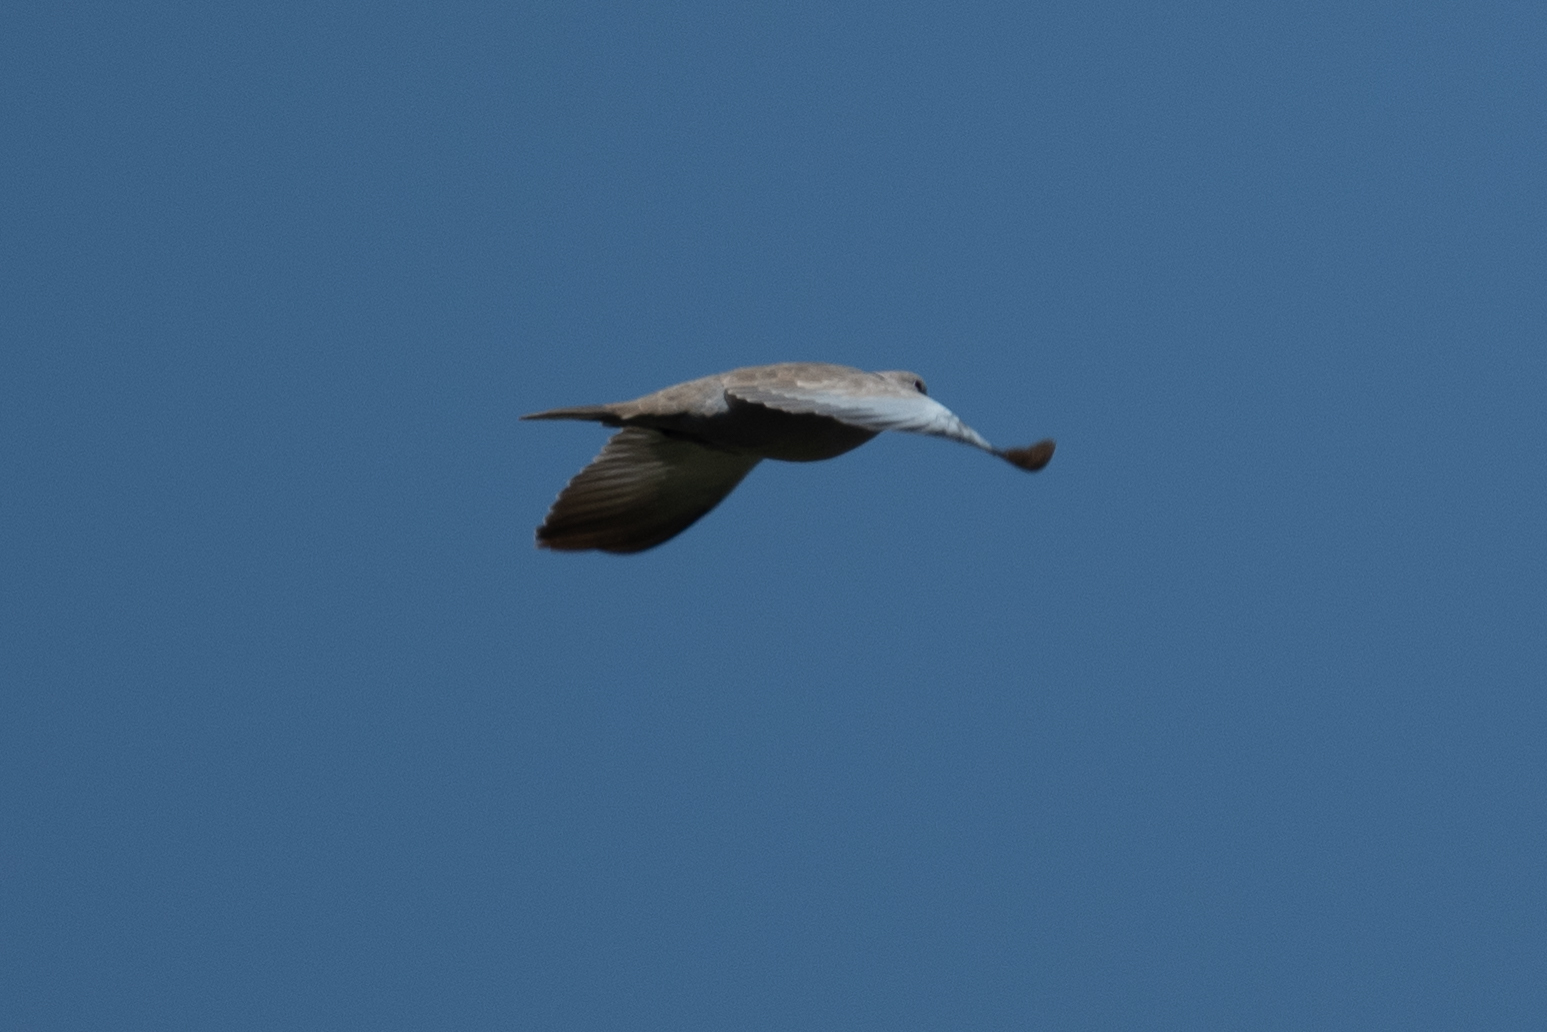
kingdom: Animalia
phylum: Chordata
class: Aves
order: Columbiformes
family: Columbidae
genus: Streptopelia
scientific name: Streptopelia decaocto
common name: Eurasian collared dove
